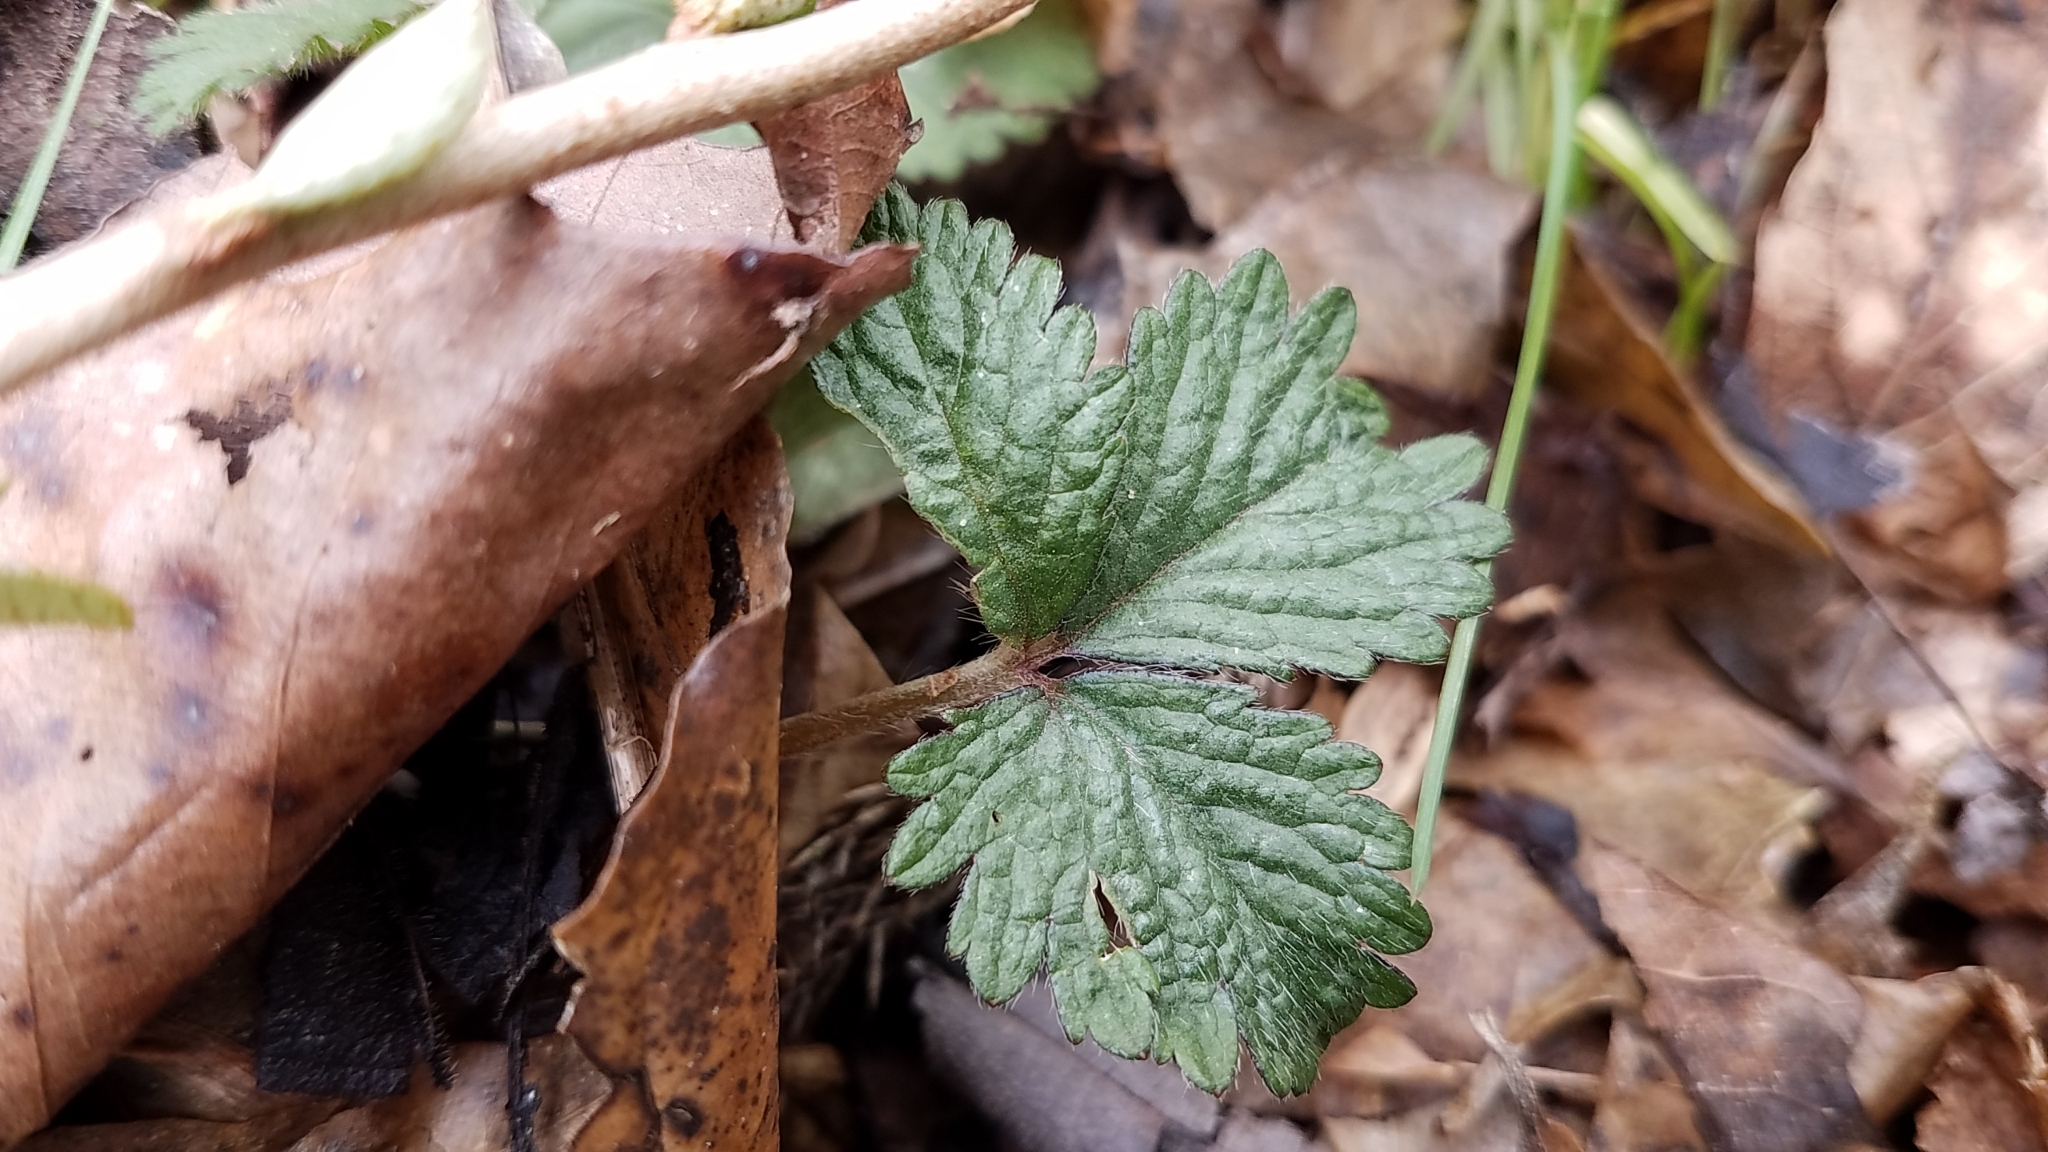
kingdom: Plantae
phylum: Tracheophyta
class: Magnoliopsida
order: Rosales
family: Rosaceae
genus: Potentilla
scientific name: Potentilla indica
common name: Yellow-flowered strawberry
